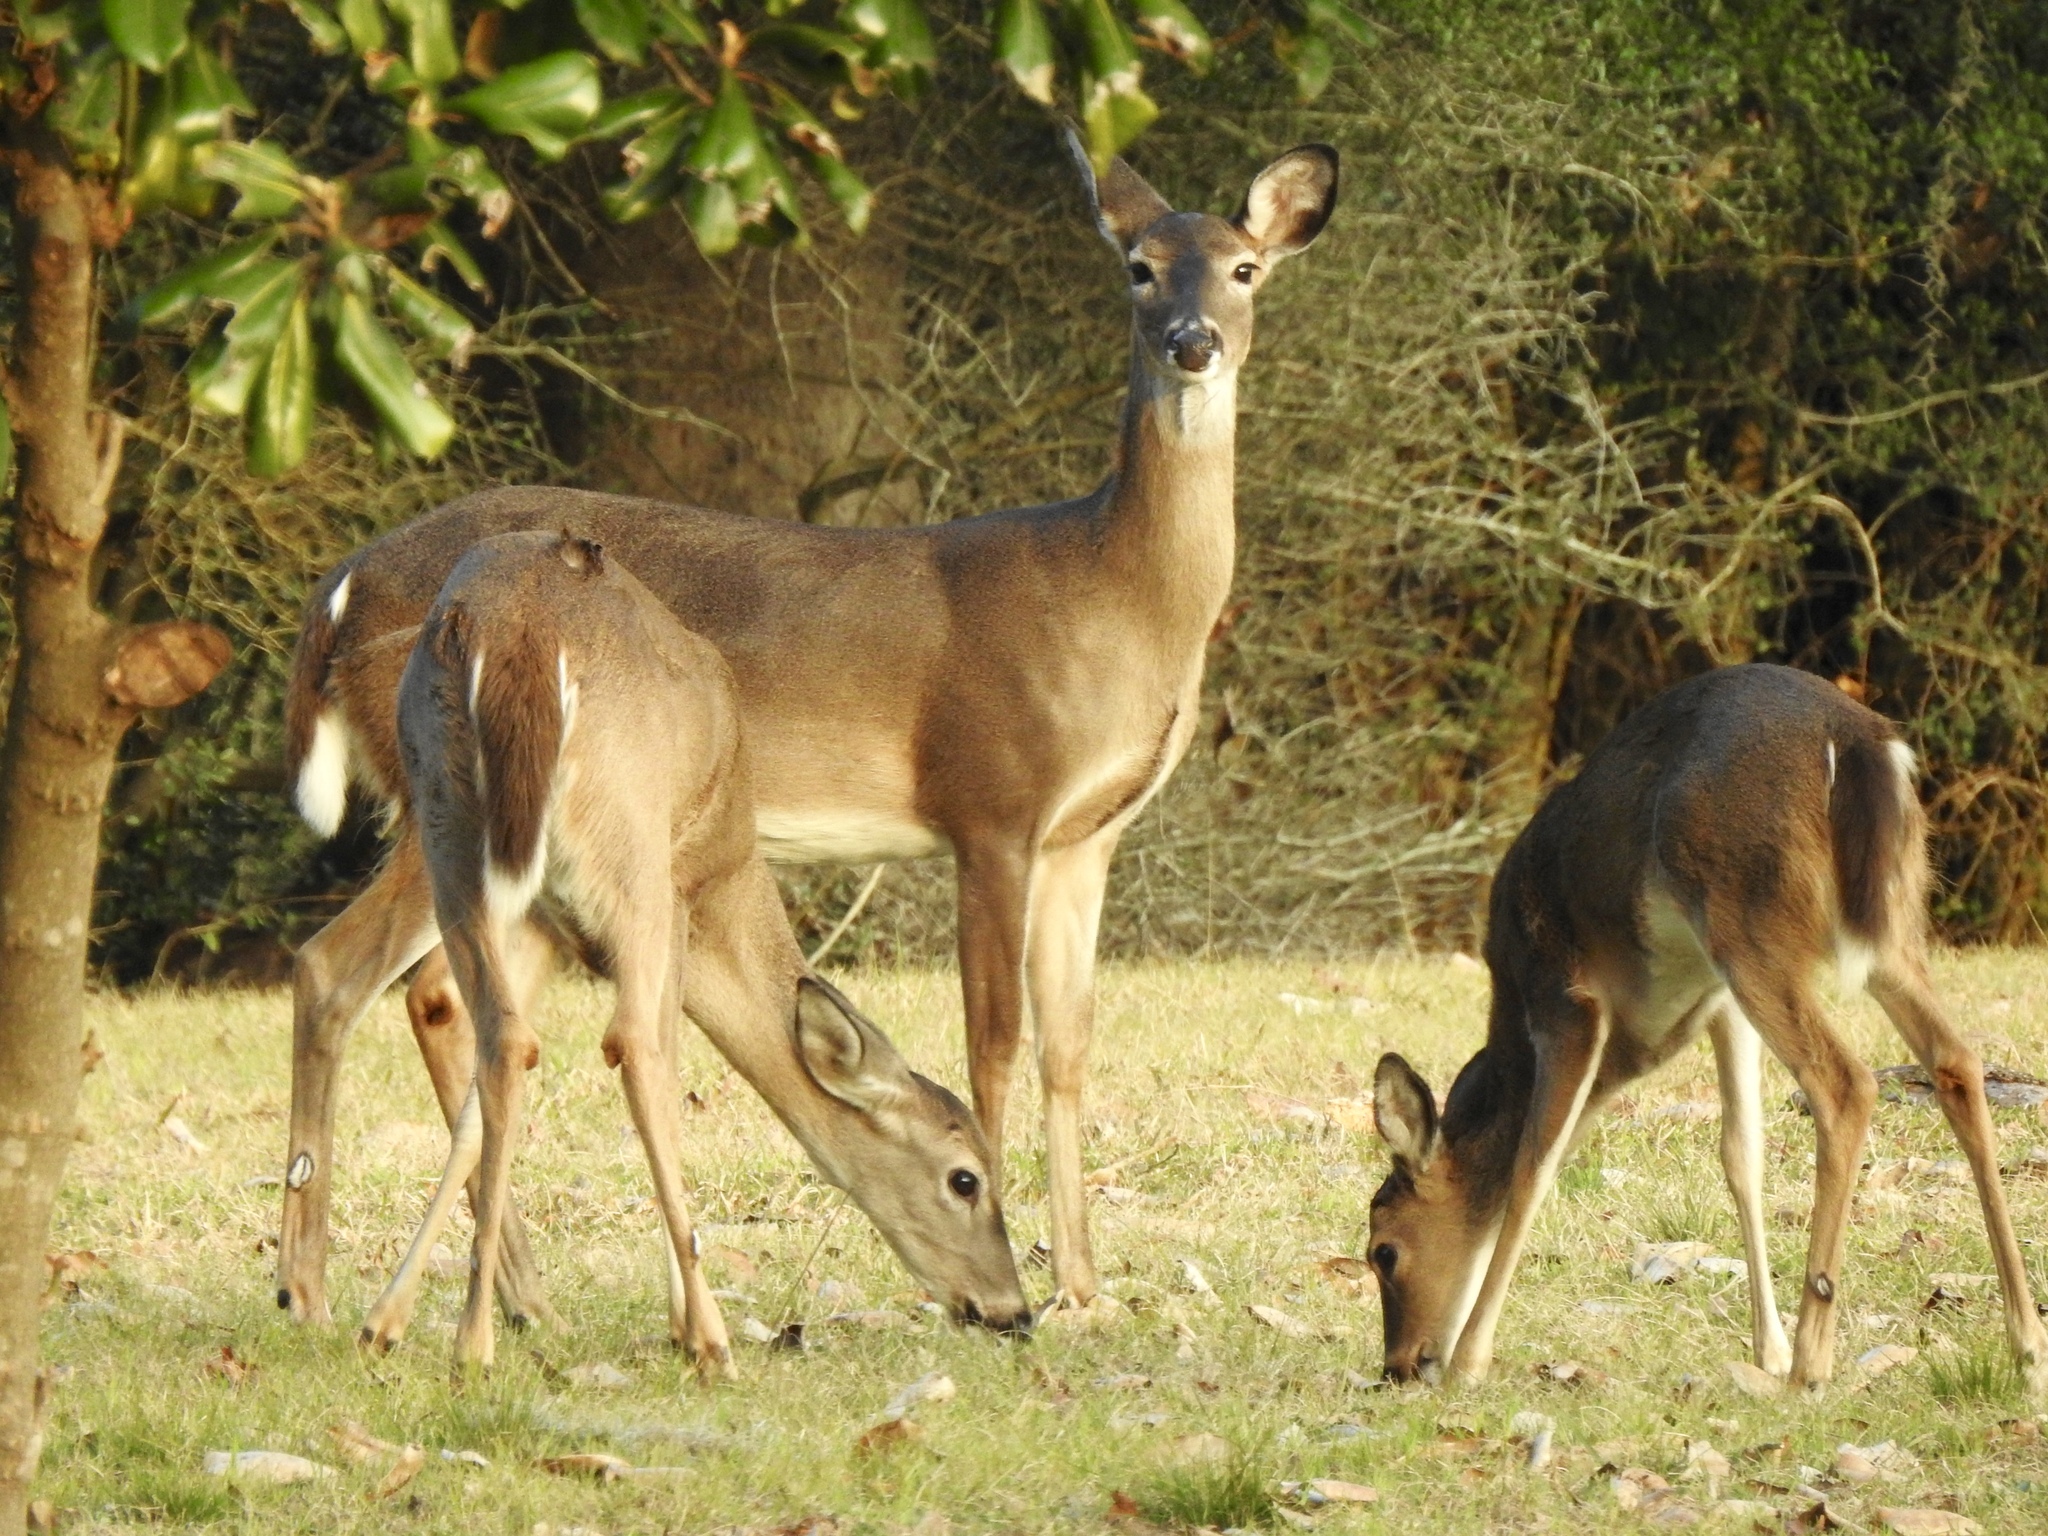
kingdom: Animalia
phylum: Chordata
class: Mammalia
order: Artiodactyla
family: Cervidae
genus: Odocoileus
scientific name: Odocoileus virginianus
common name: White-tailed deer
